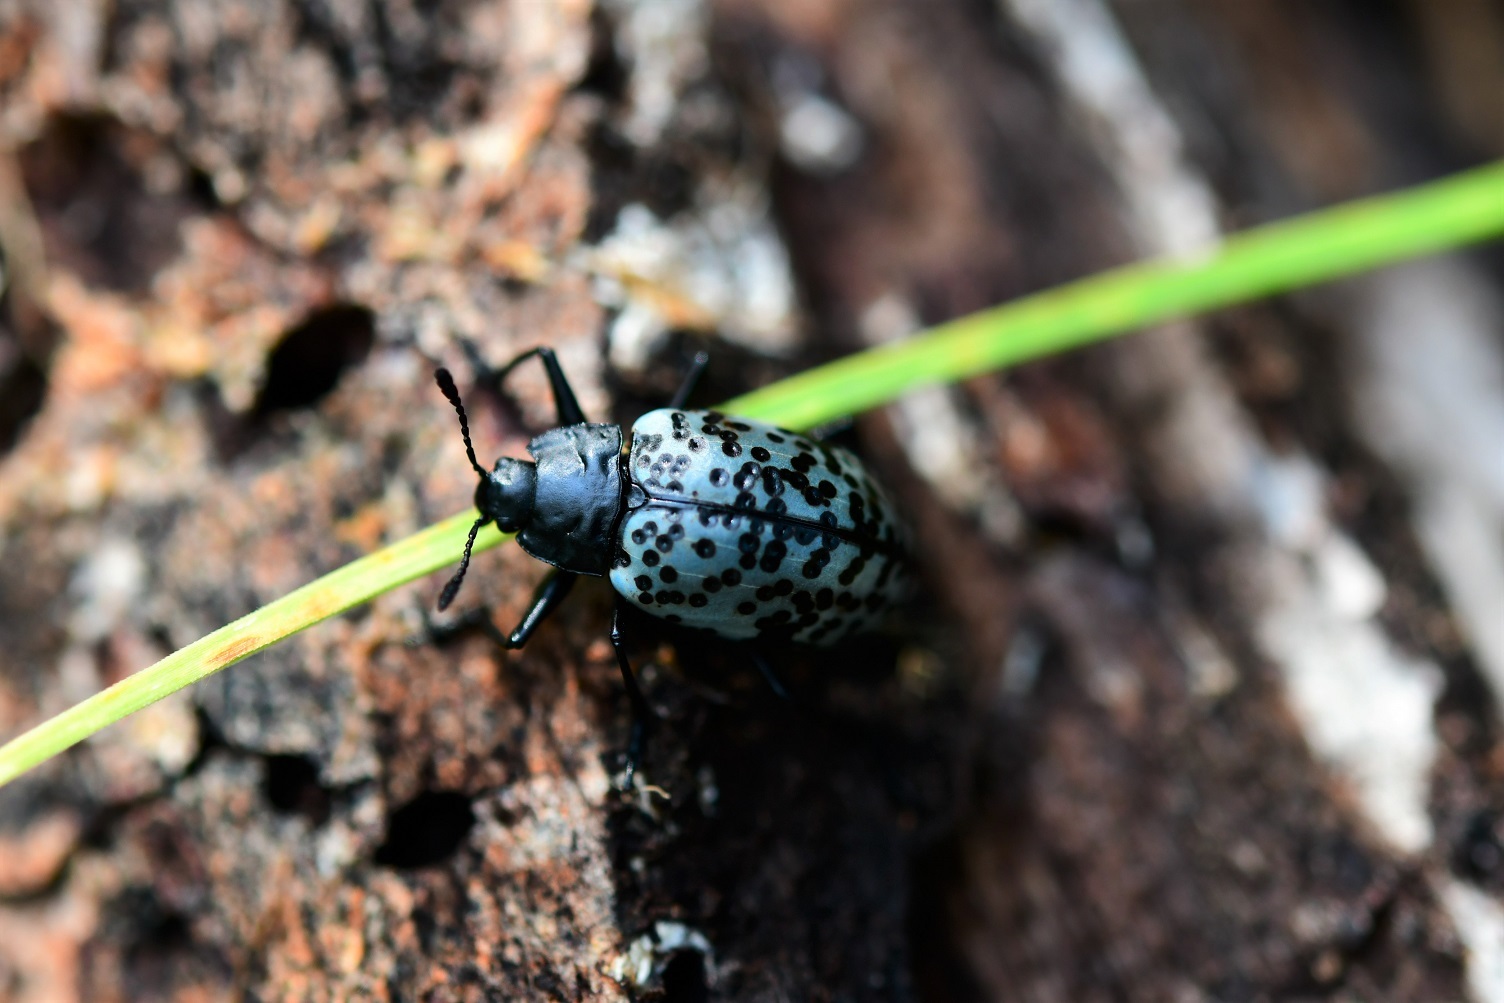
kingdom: Animalia
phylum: Arthropoda
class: Insecta
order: Coleoptera
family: Erotylidae
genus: Gibbifer
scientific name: Gibbifer californicus
